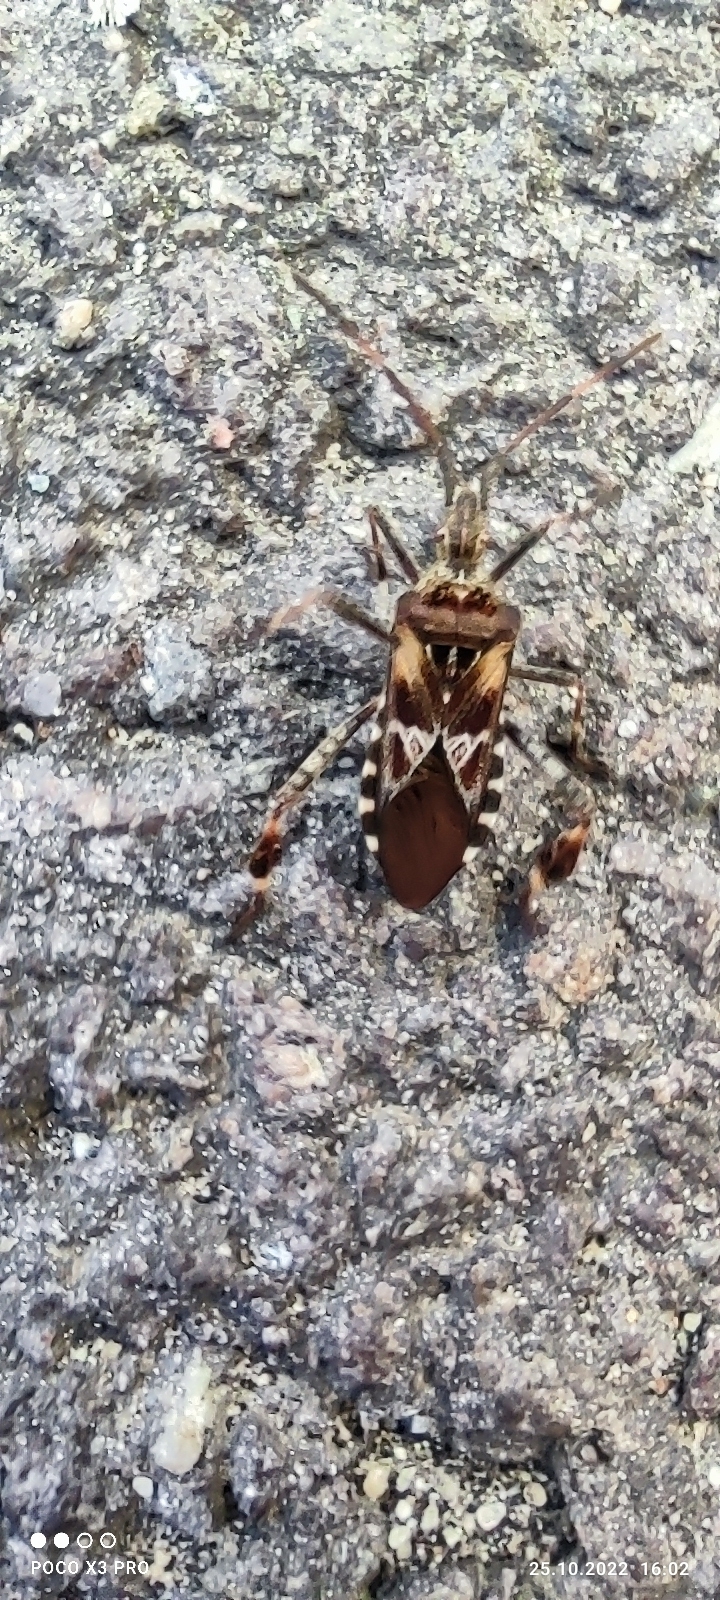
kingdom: Animalia
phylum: Arthropoda
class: Insecta
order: Hemiptera
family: Coreidae
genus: Leptoglossus
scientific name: Leptoglossus occidentalis
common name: Western conifer-seed bug
